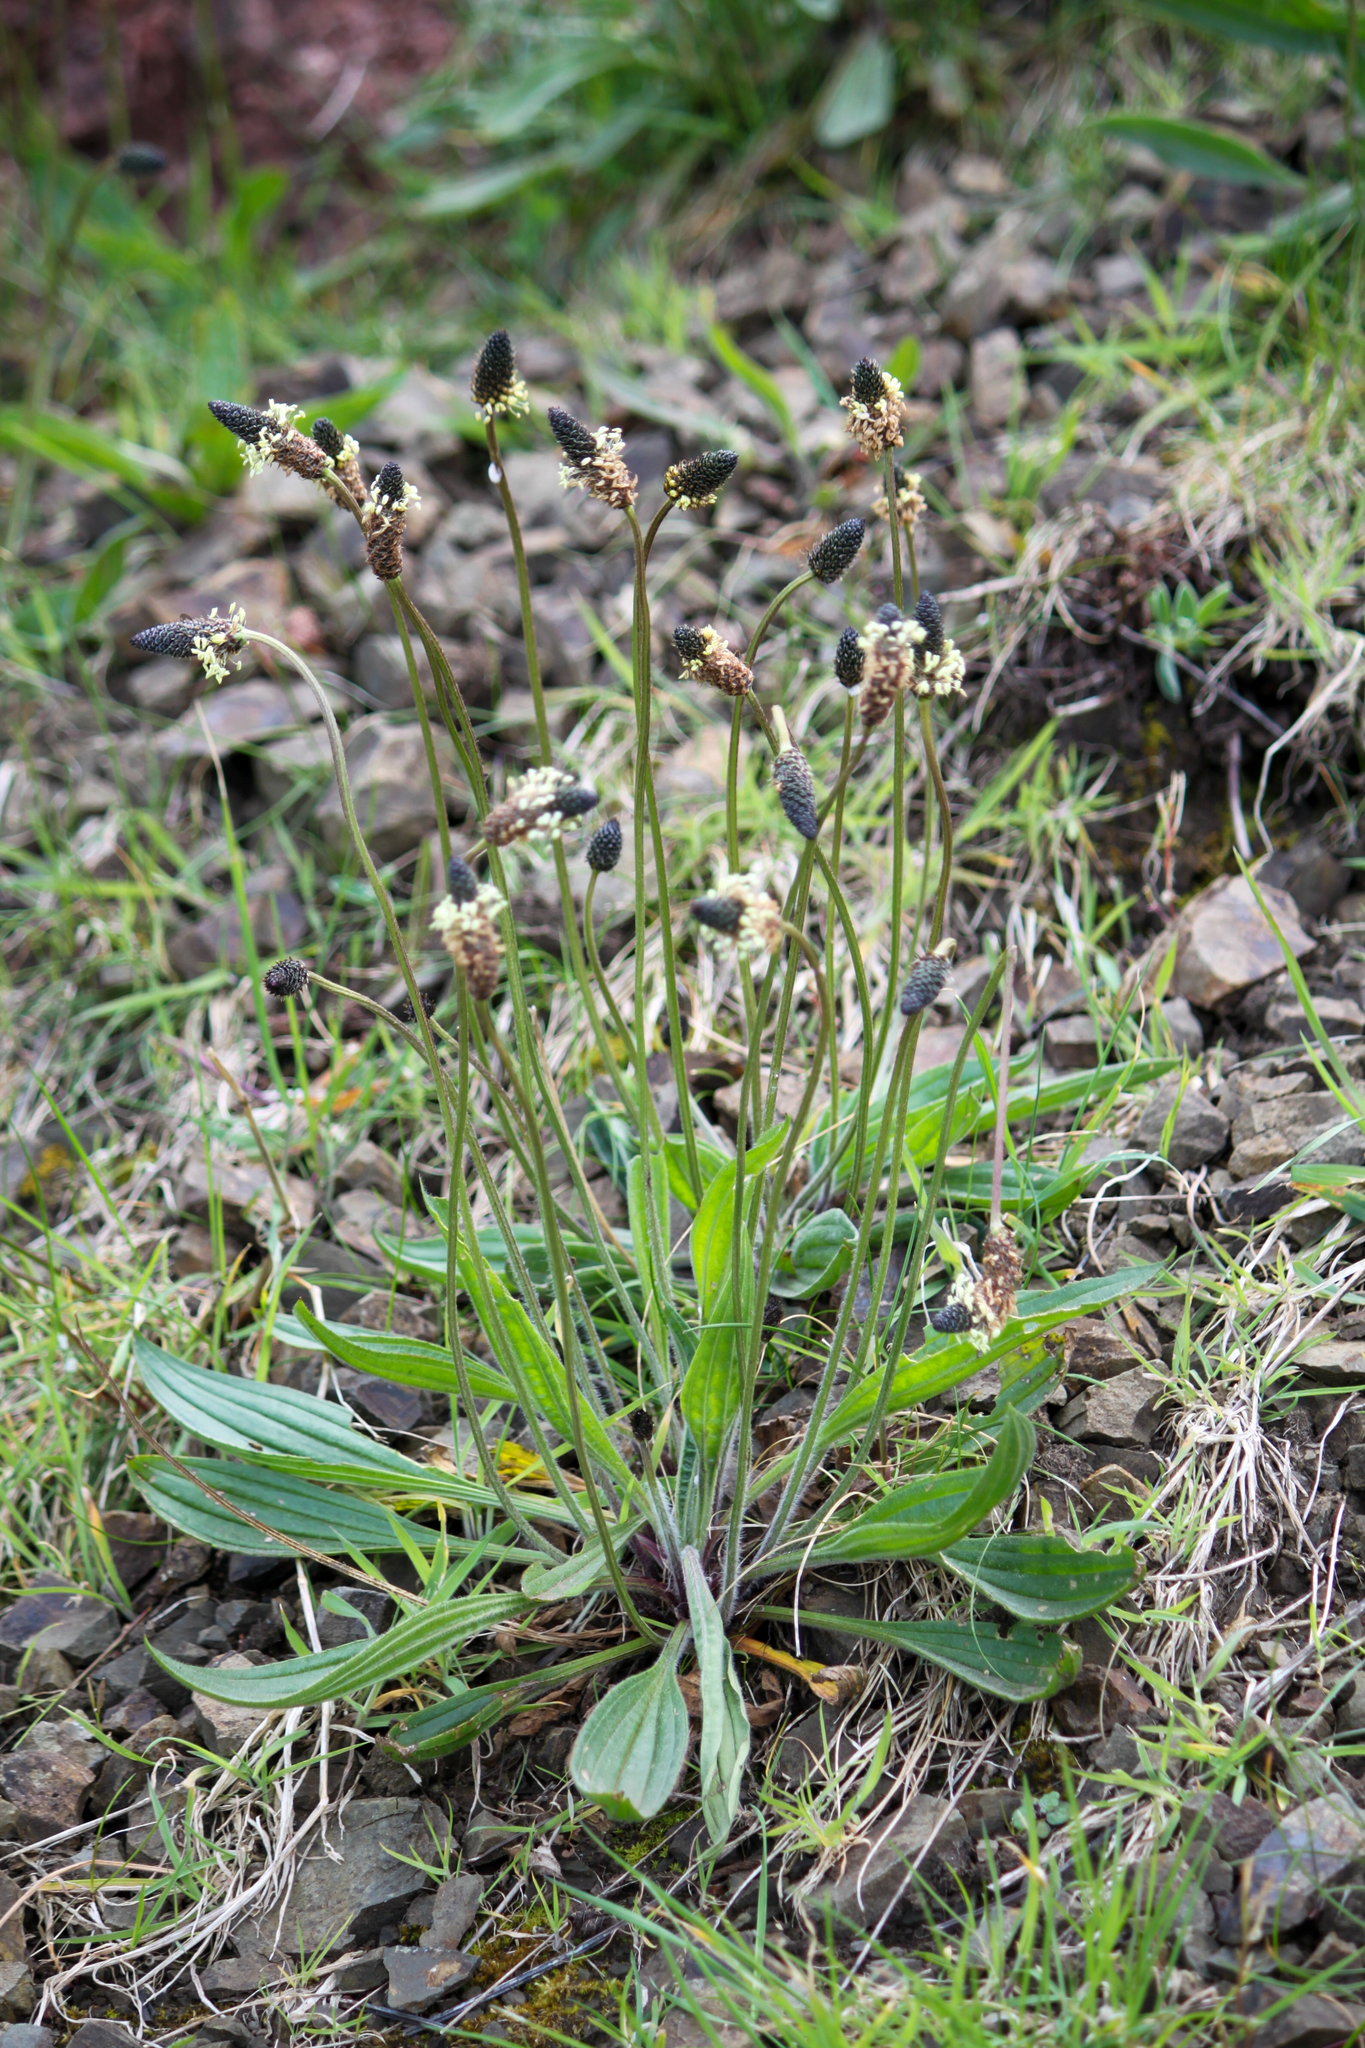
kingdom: Plantae
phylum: Tracheophyta
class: Magnoliopsida
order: Lamiales
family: Plantaginaceae
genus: Plantago
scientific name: Plantago lanceolata
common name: Ribwort plantain
